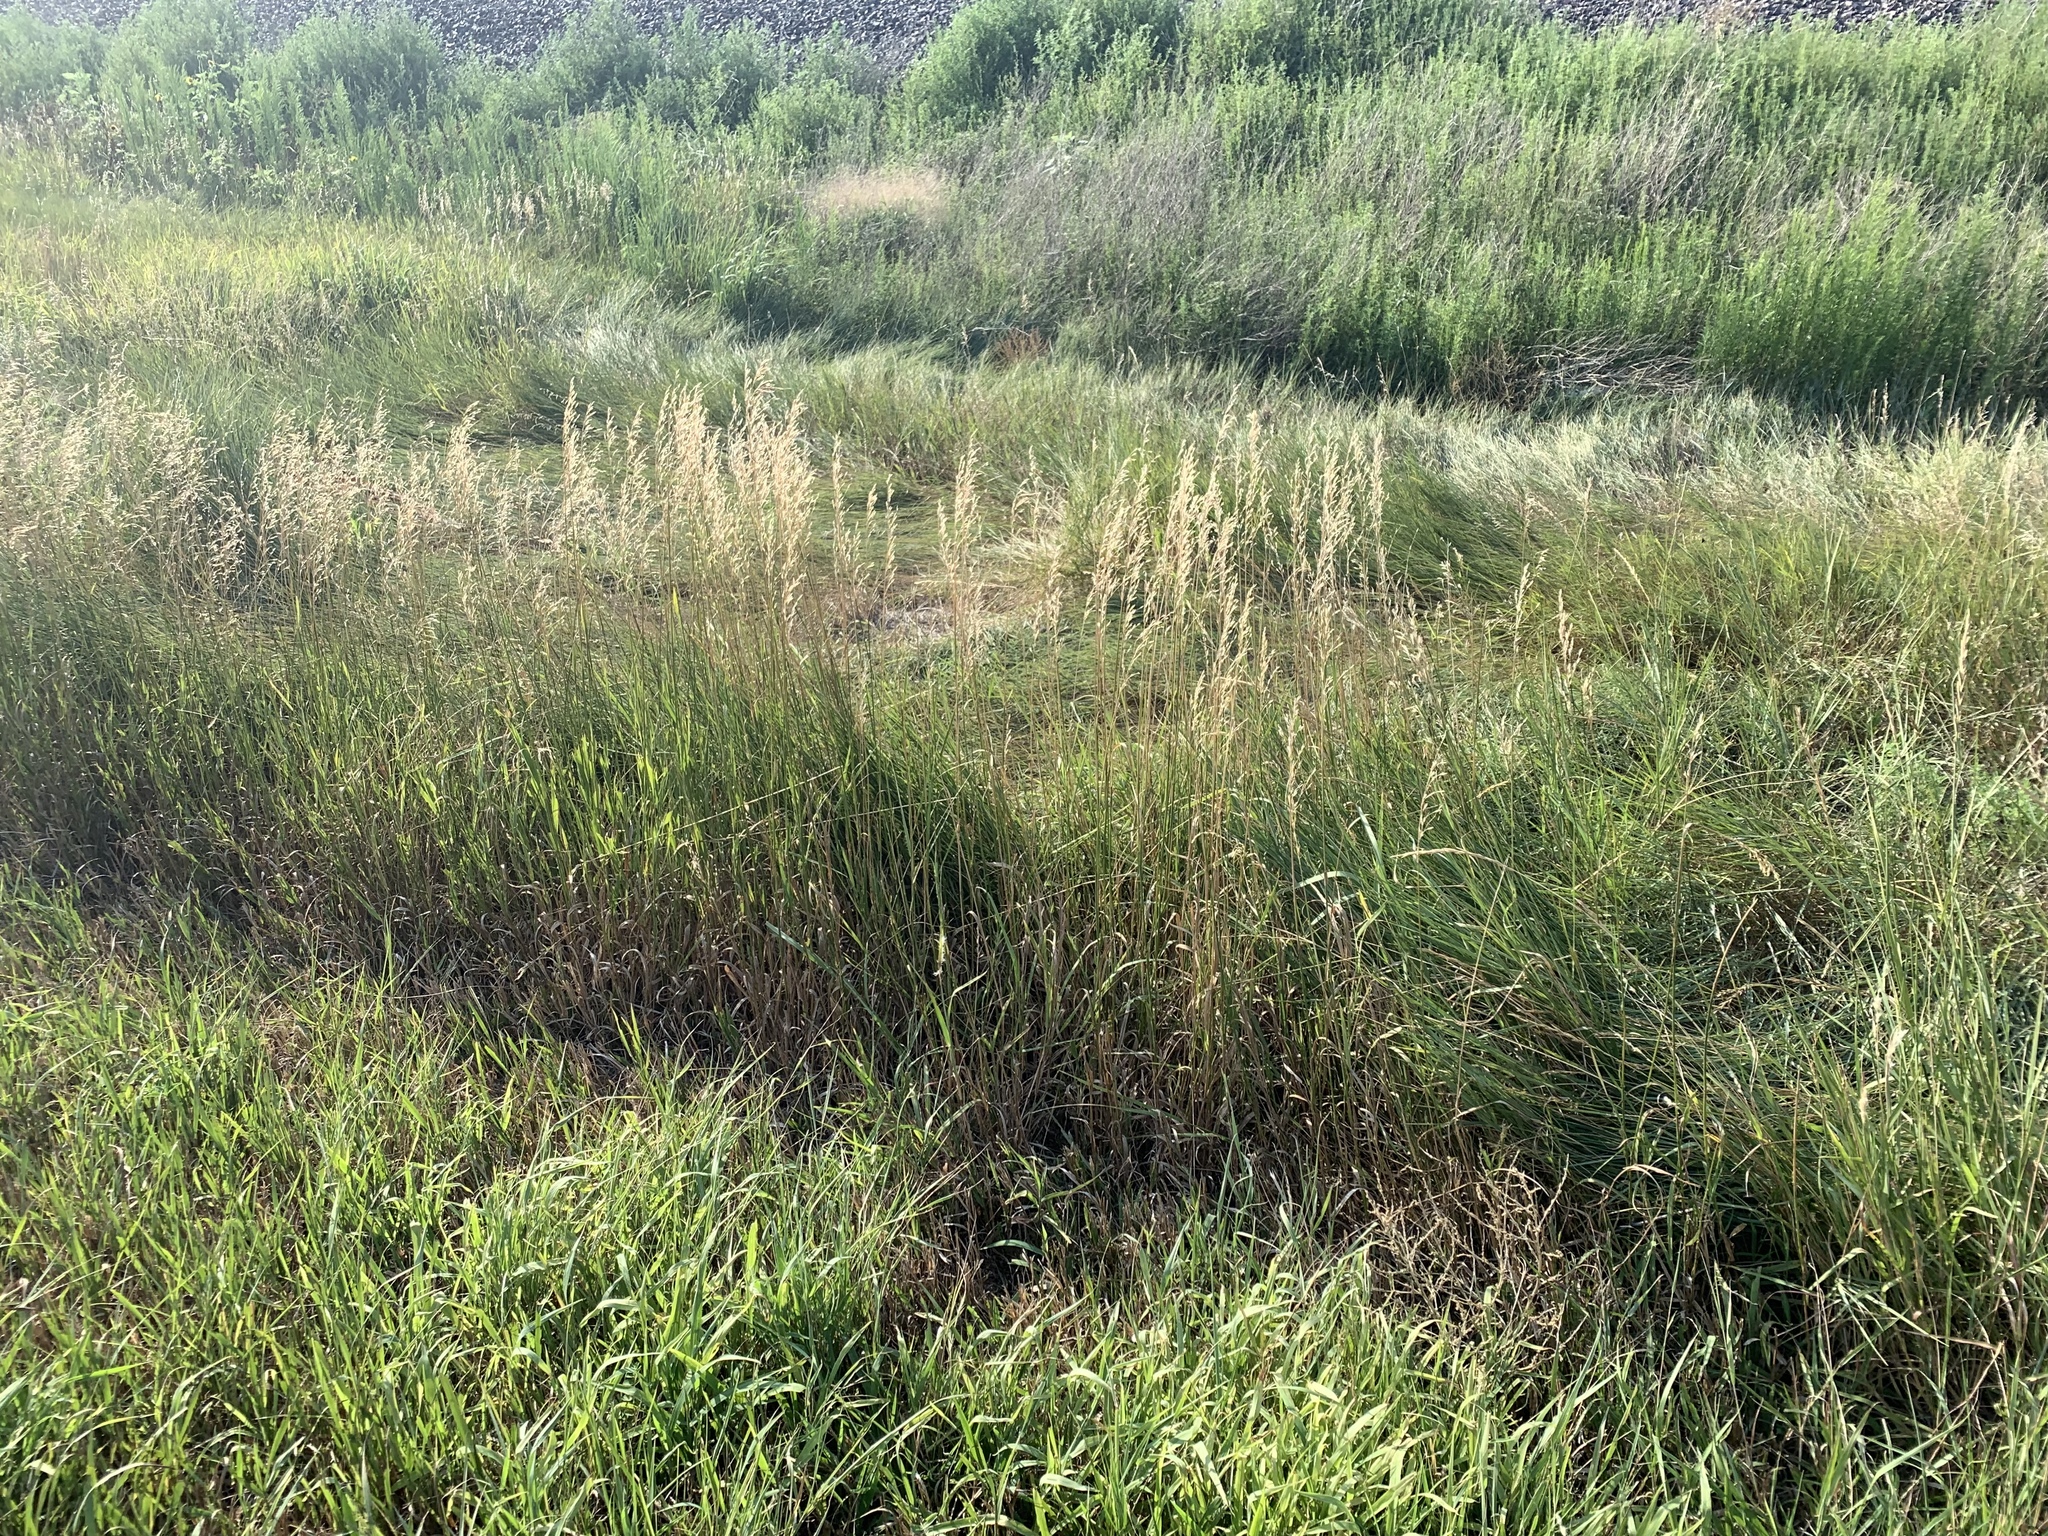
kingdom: Plantae
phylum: Tracheophyta
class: Liliopsida
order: Poales
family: Poaceae
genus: Bromus
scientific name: Bromus inermis
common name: Smooth brome
